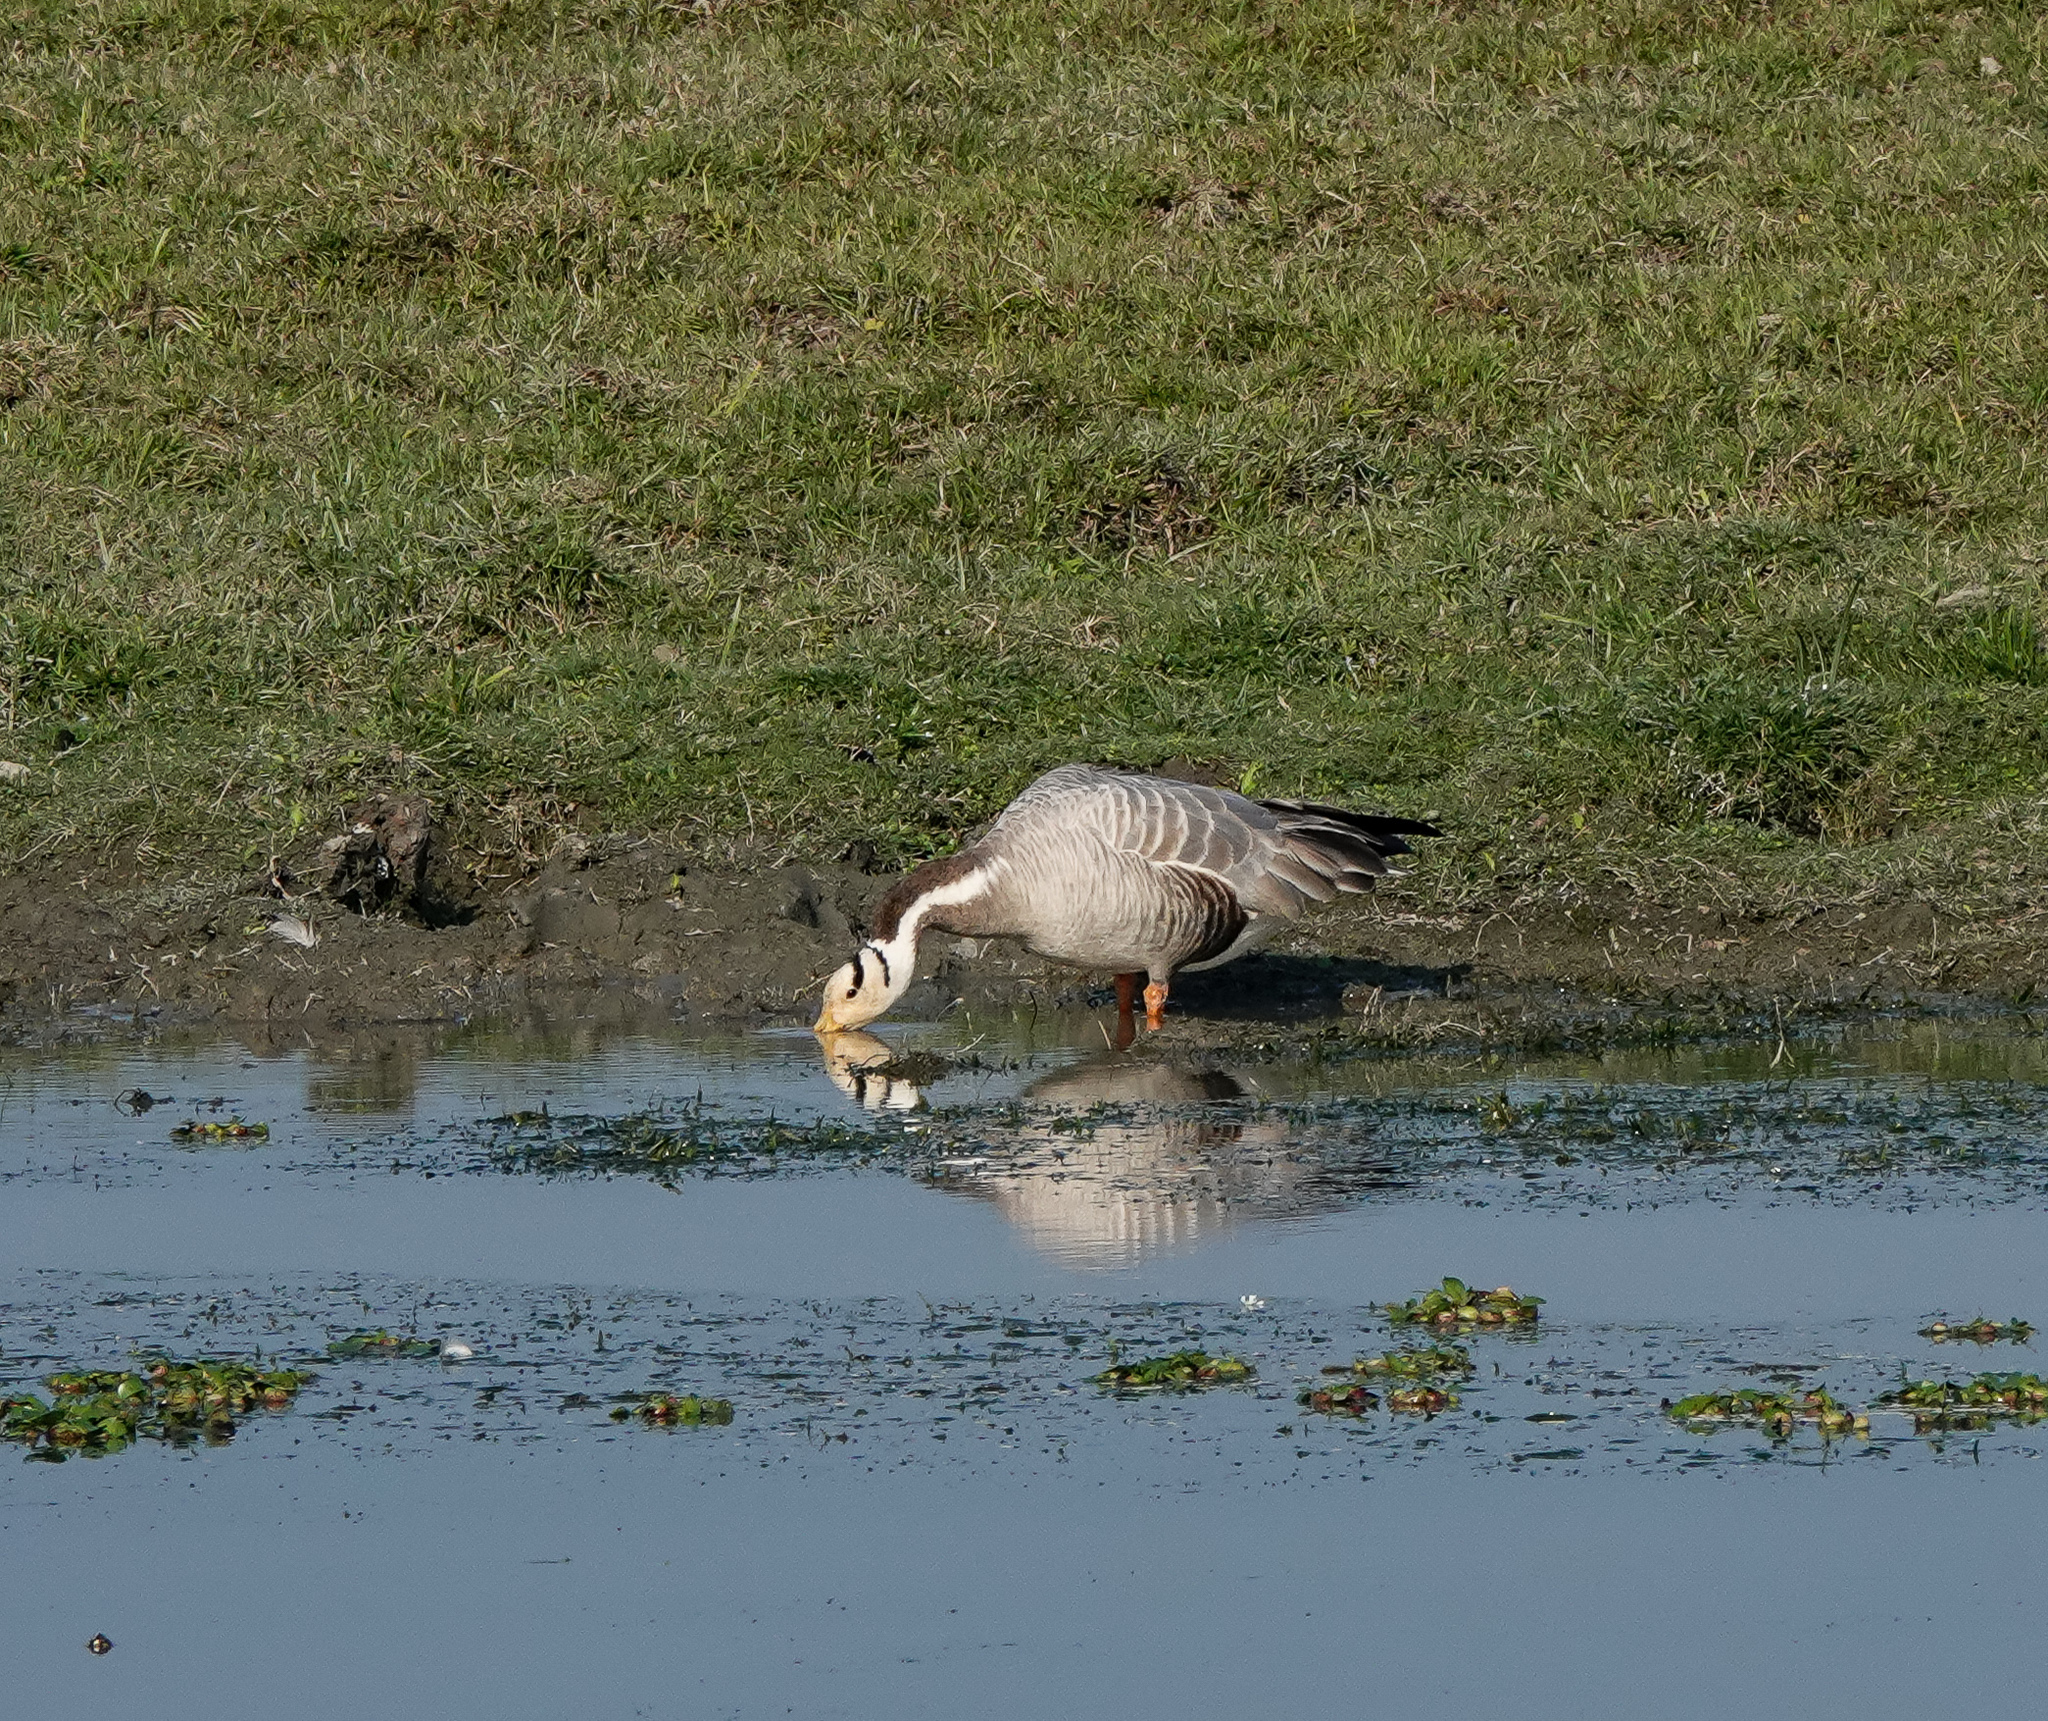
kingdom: Animalia
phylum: Chordata
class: Aves
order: Anseriformes
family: Anatidae
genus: Anser
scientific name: Anser indicus
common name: Bar-headed goose
